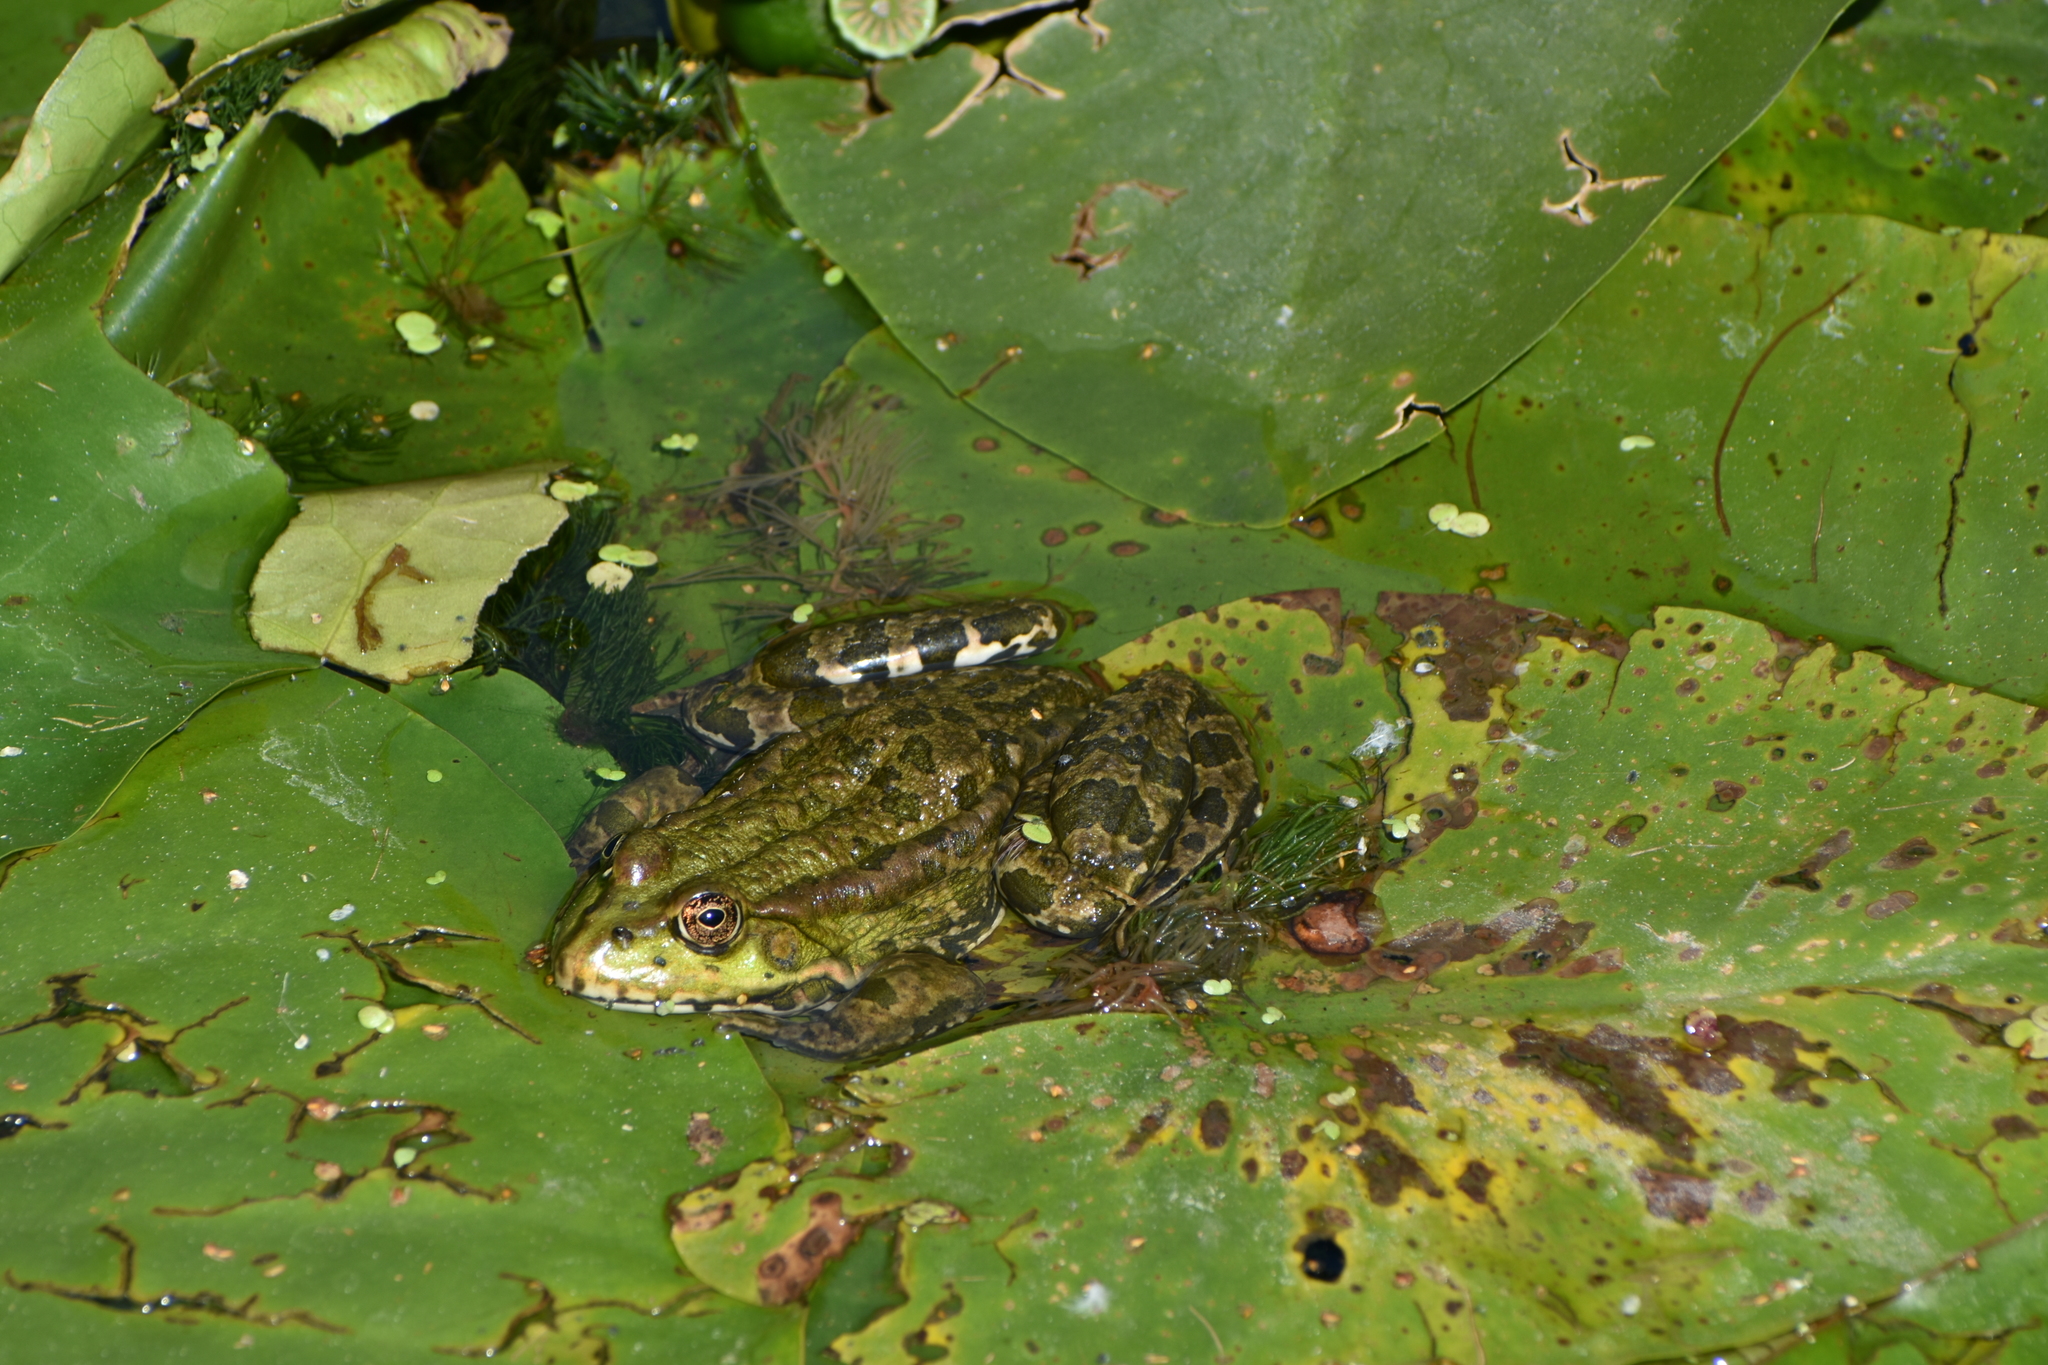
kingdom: Animalia
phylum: Chordata
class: Amphibia
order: Anura
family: Ranidae
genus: Pelophylax
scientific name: Pelophylax ridibundus
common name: Marsh frog
